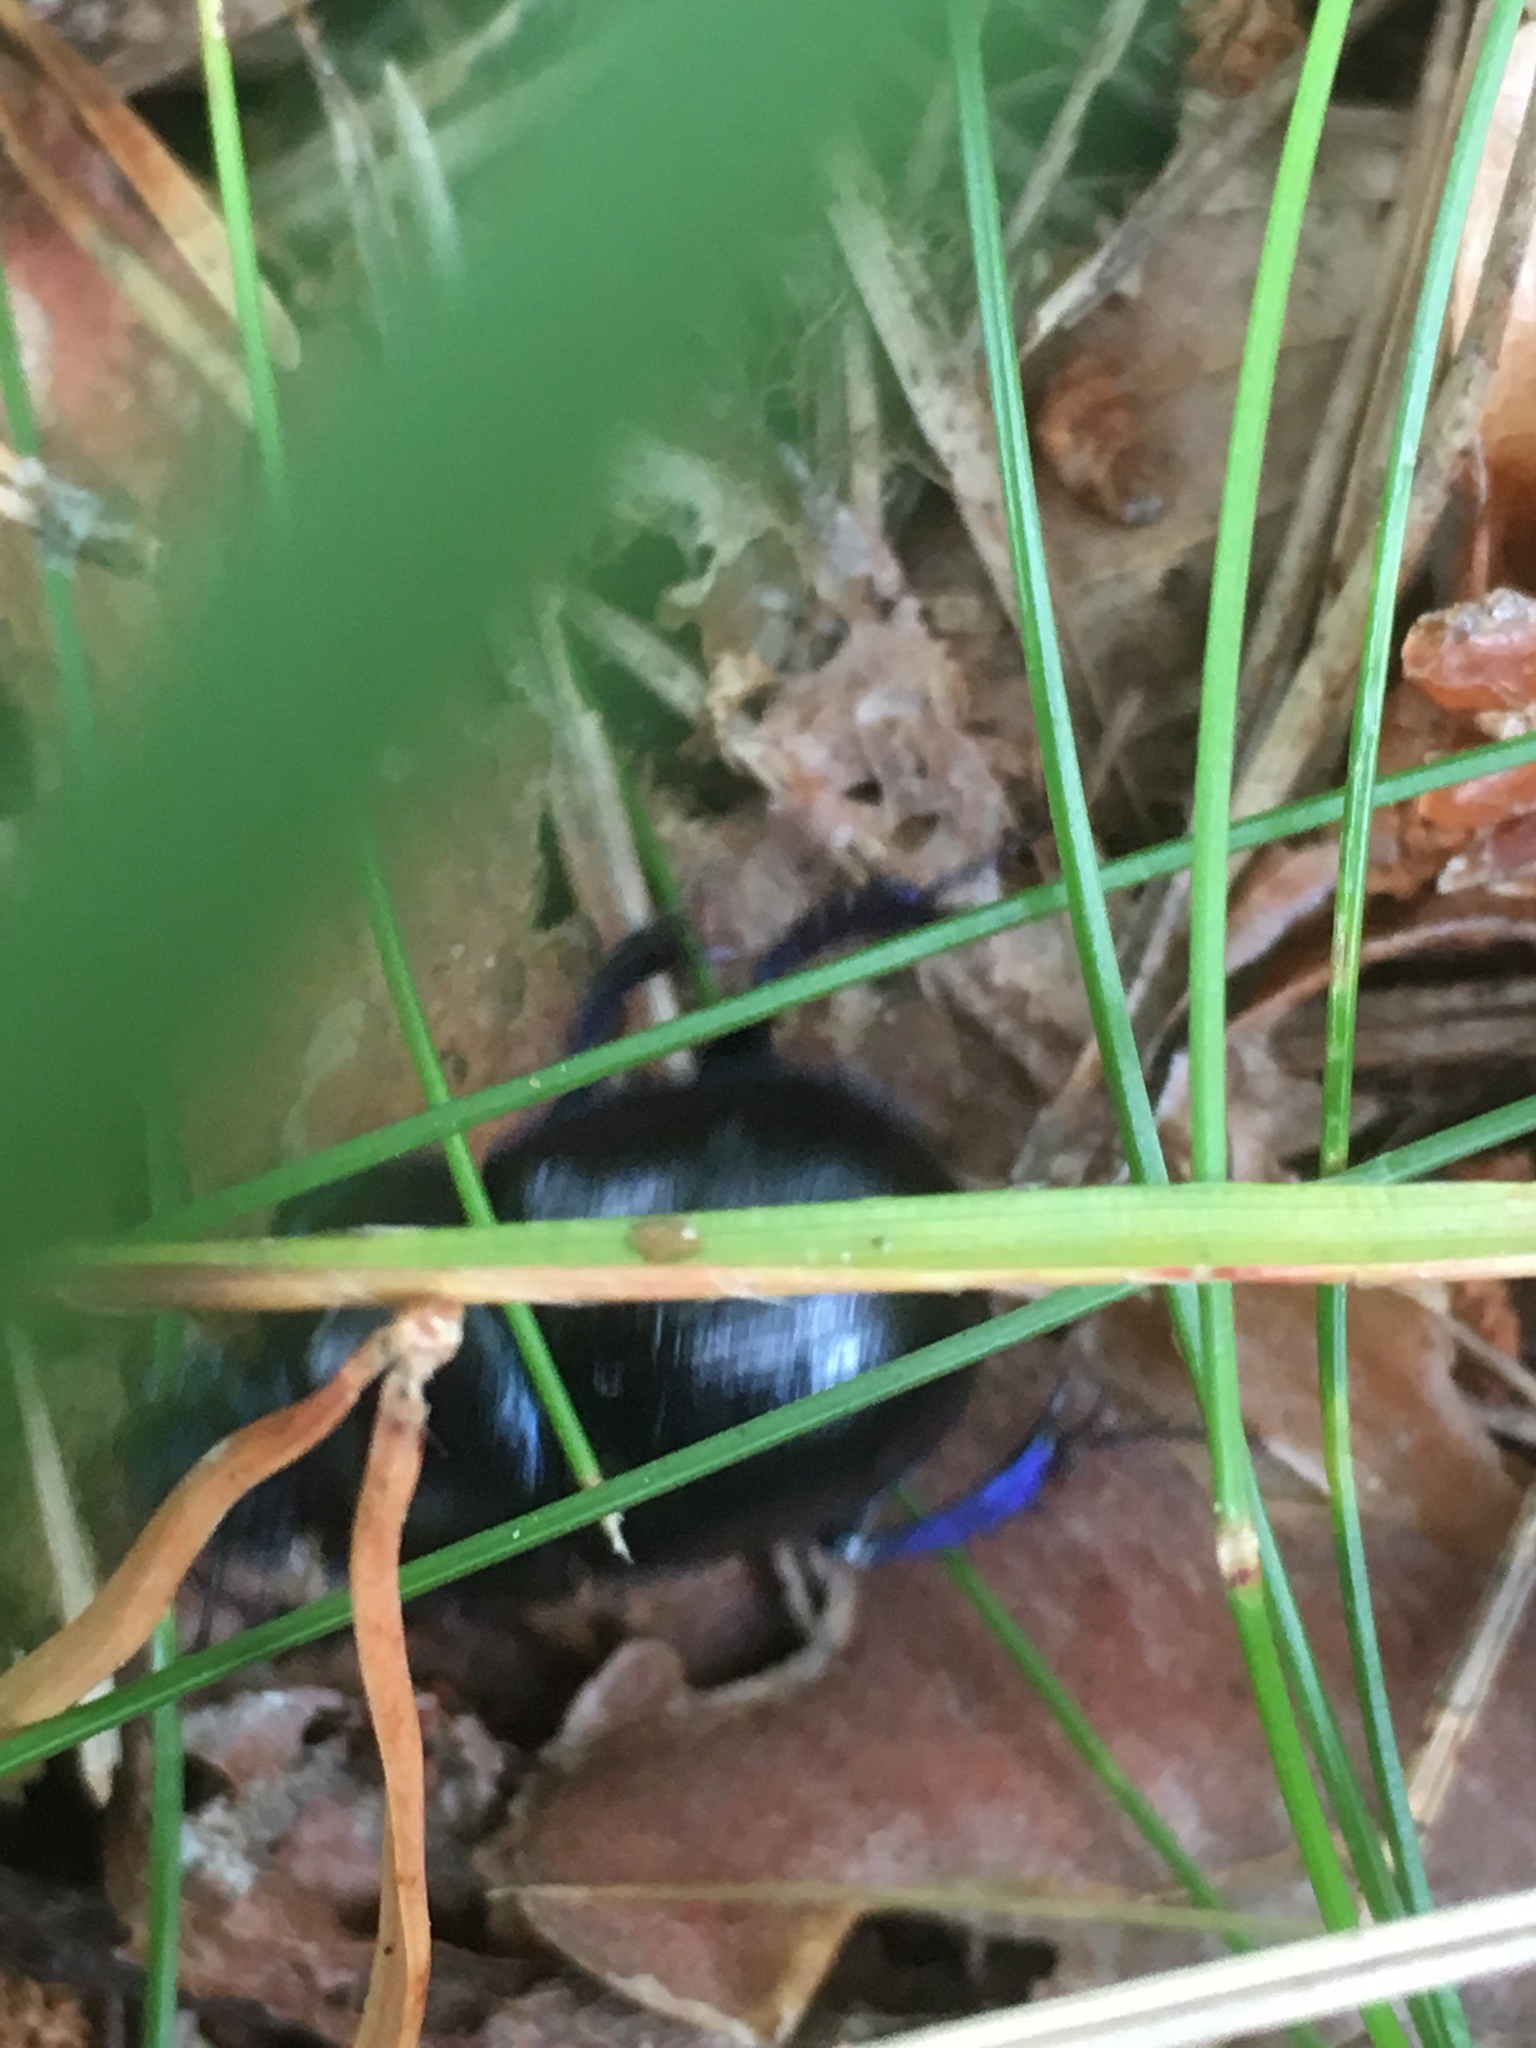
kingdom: Animalia
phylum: Arthropoda
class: Insecta
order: Coleoptera
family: Geotrupidae
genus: Anoplotrupes
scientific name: Anoplotrupes stercorosus
